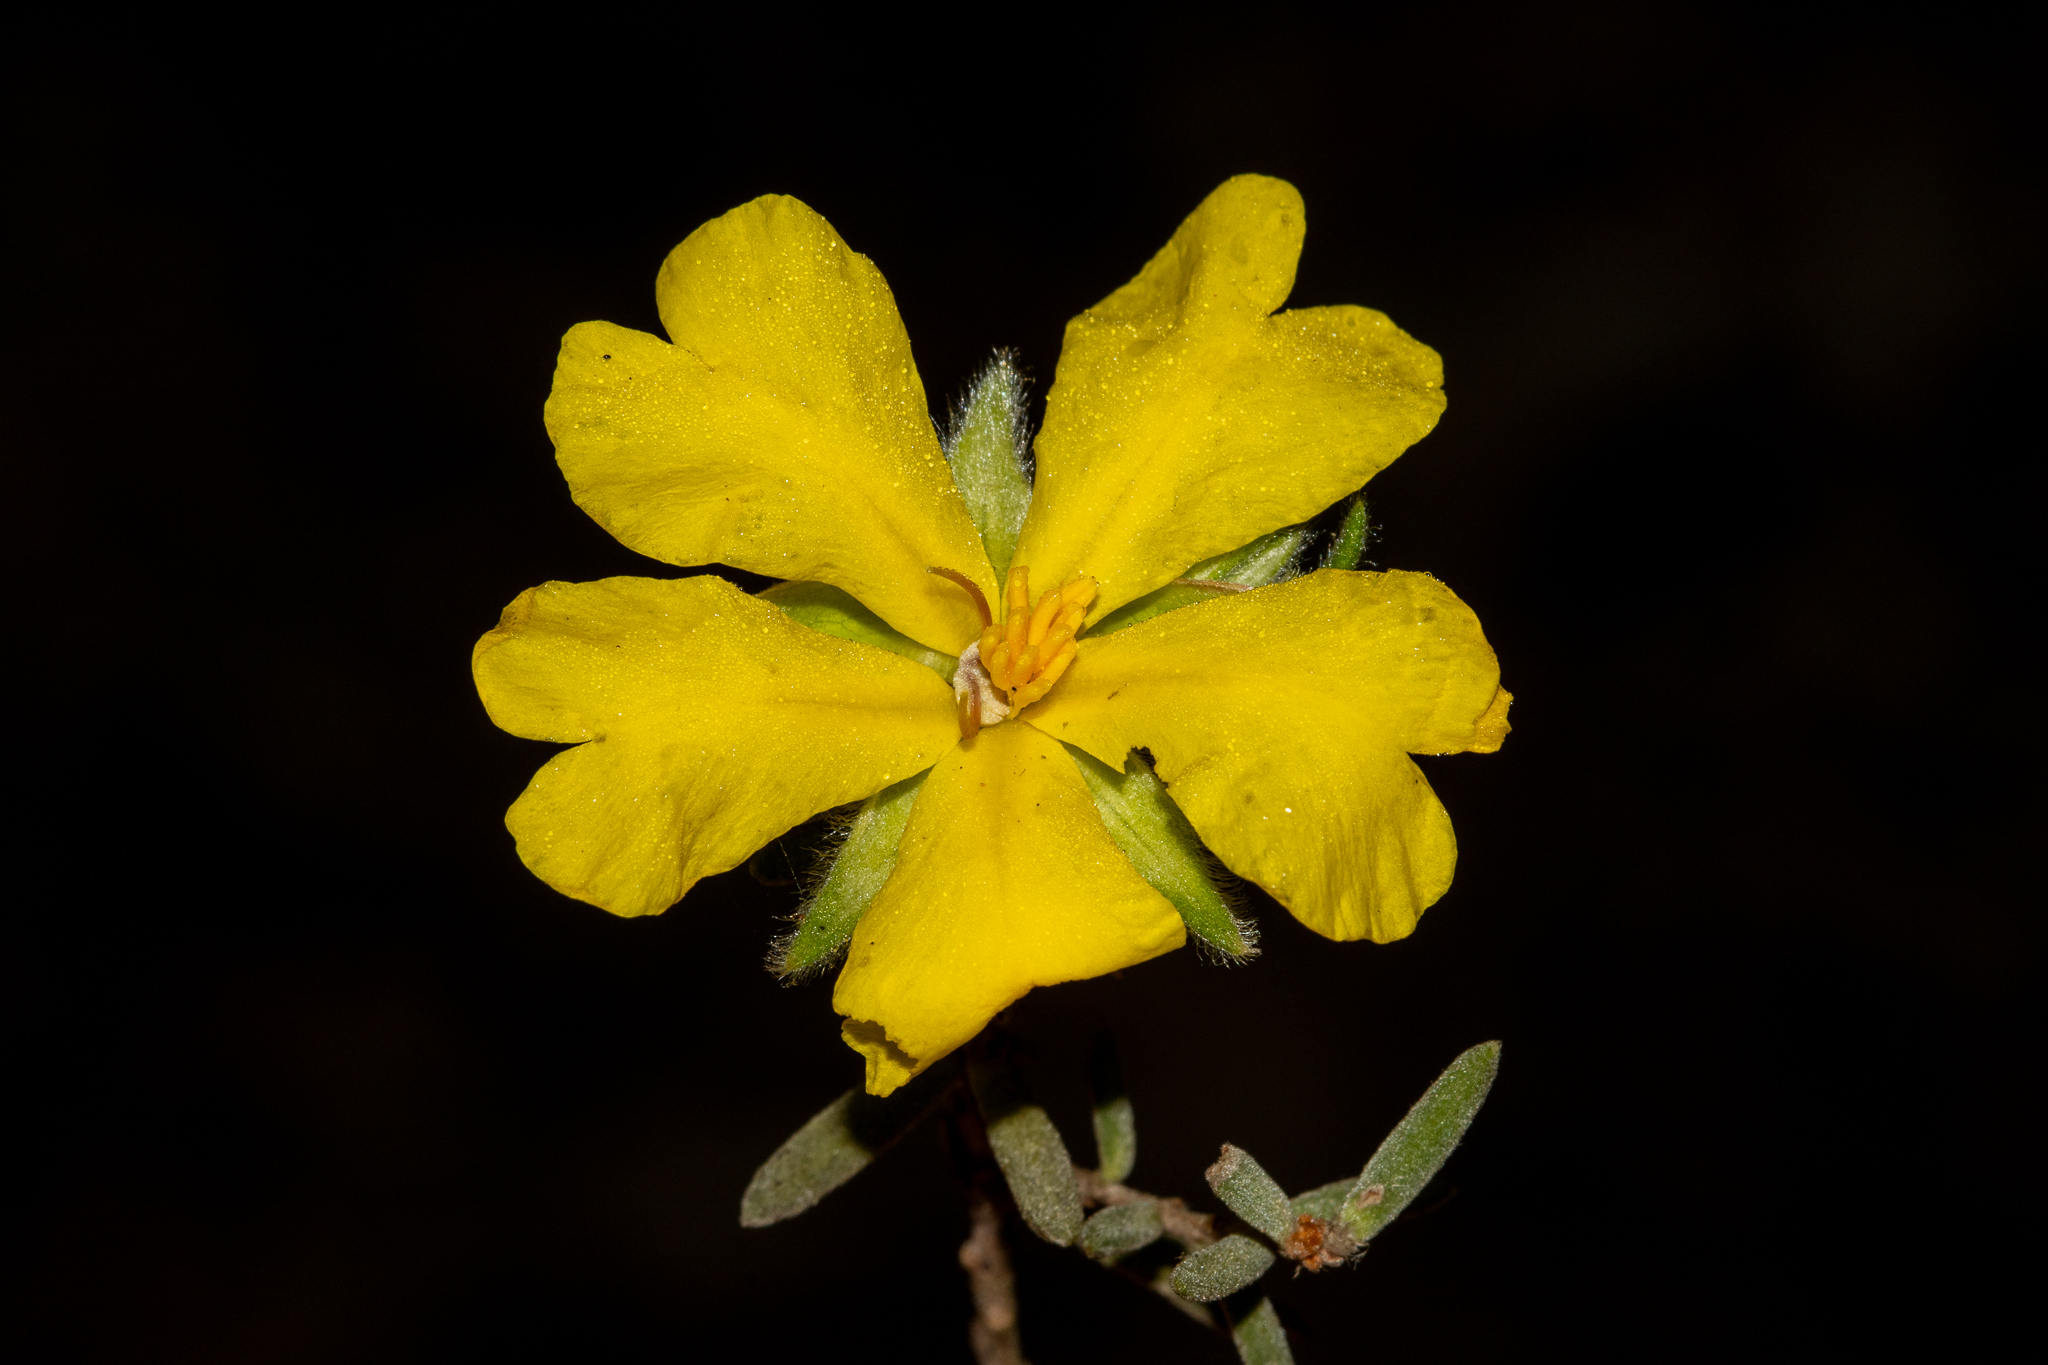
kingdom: Plantae
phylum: Tracheophyta
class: Magnoliopsida
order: Dilleniales
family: Dilleniaceae
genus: Hibbertia
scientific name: Hibbertia crinita
